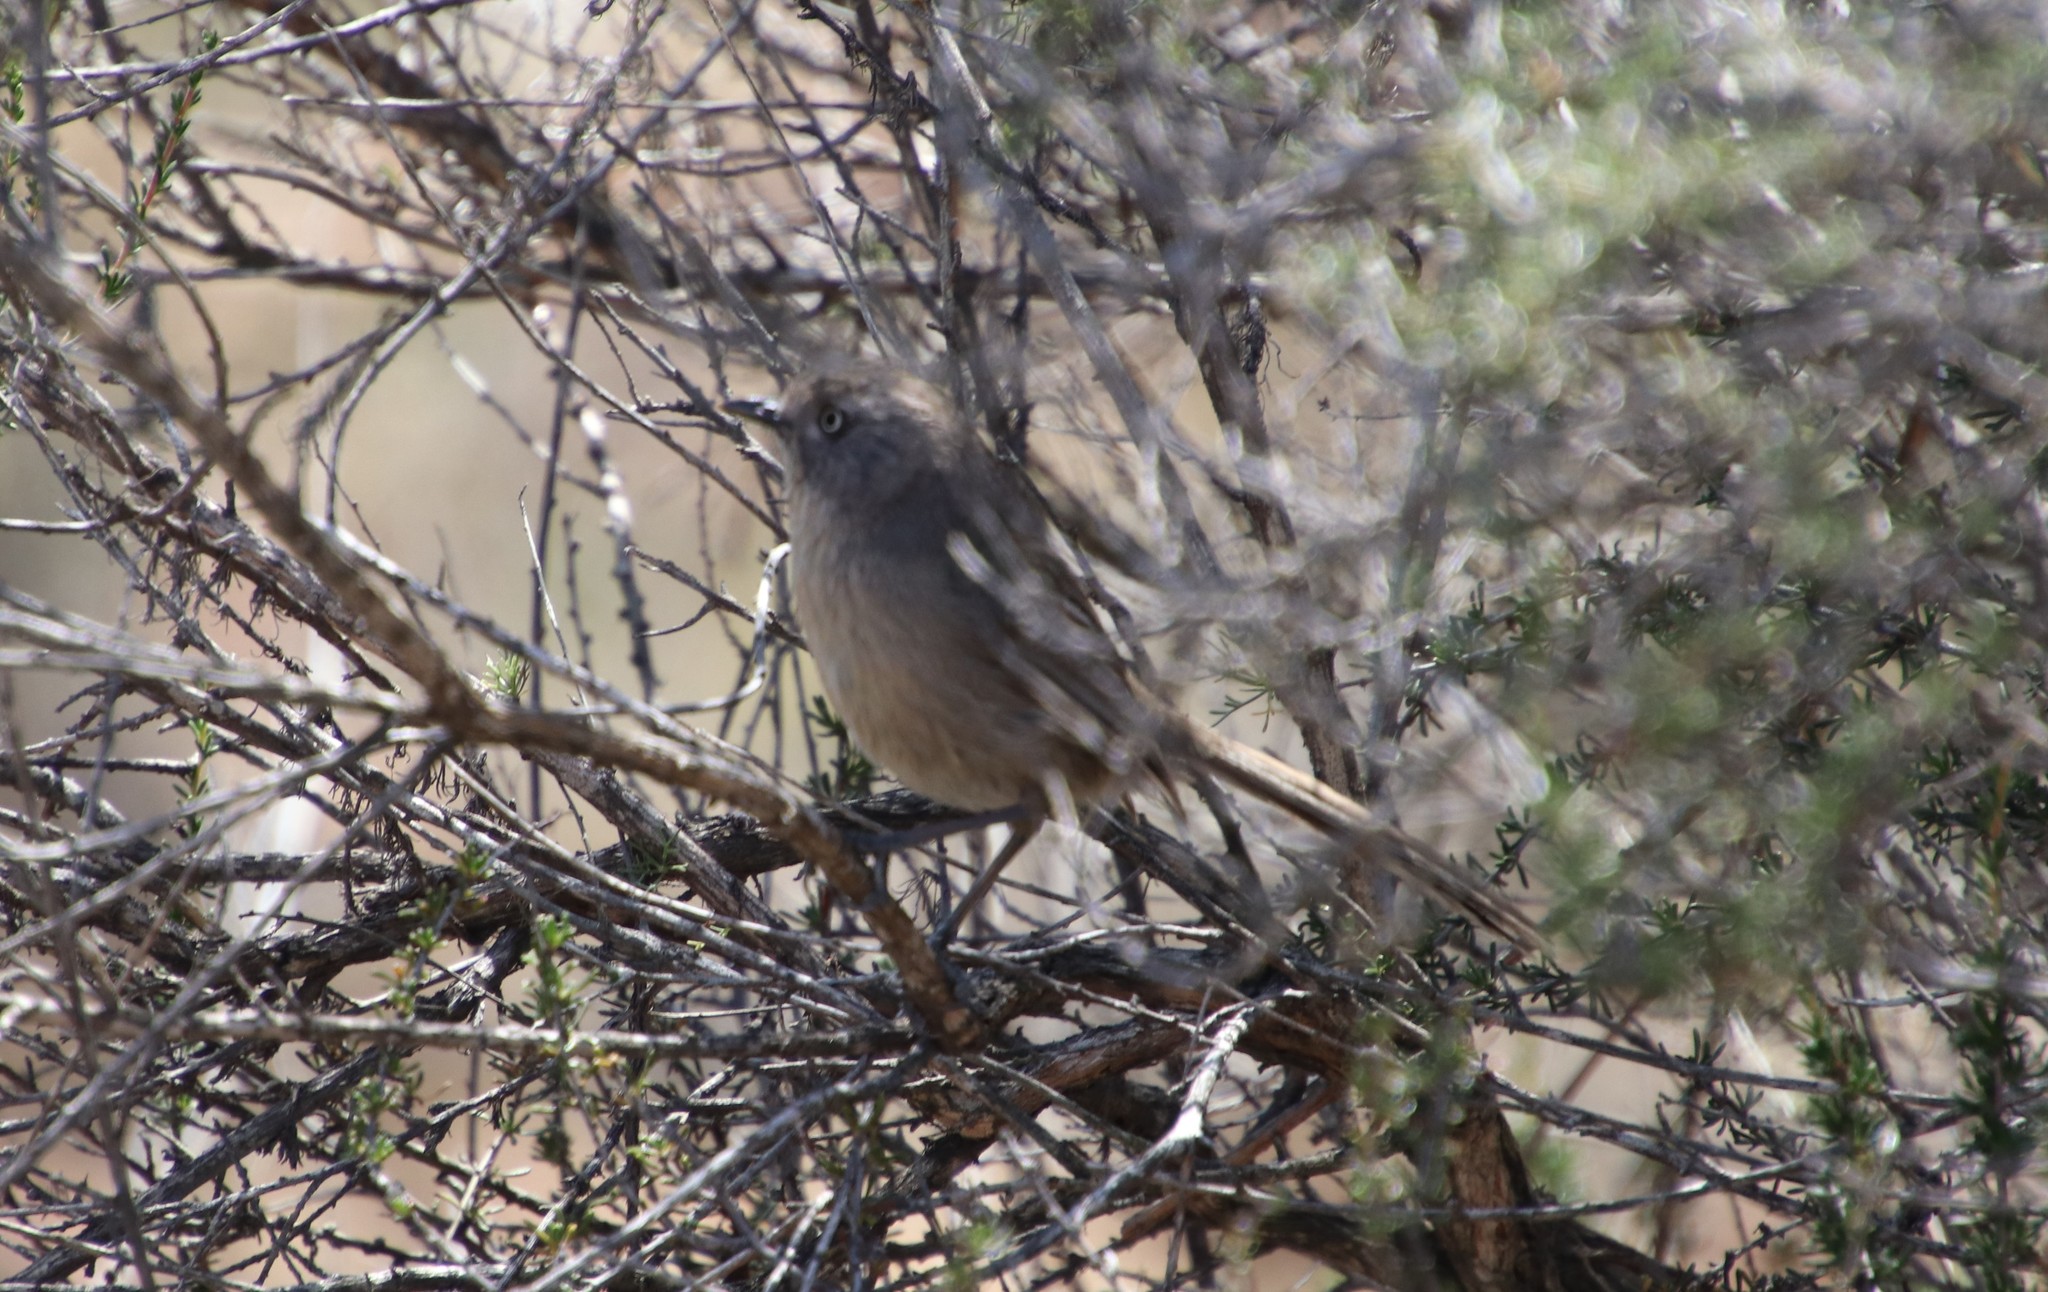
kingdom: Animalia
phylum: Chordata
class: Aves
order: Passeriformes
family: Sylviidae
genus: Chamaea
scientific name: Chamaea fasciata
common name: Wrentit
